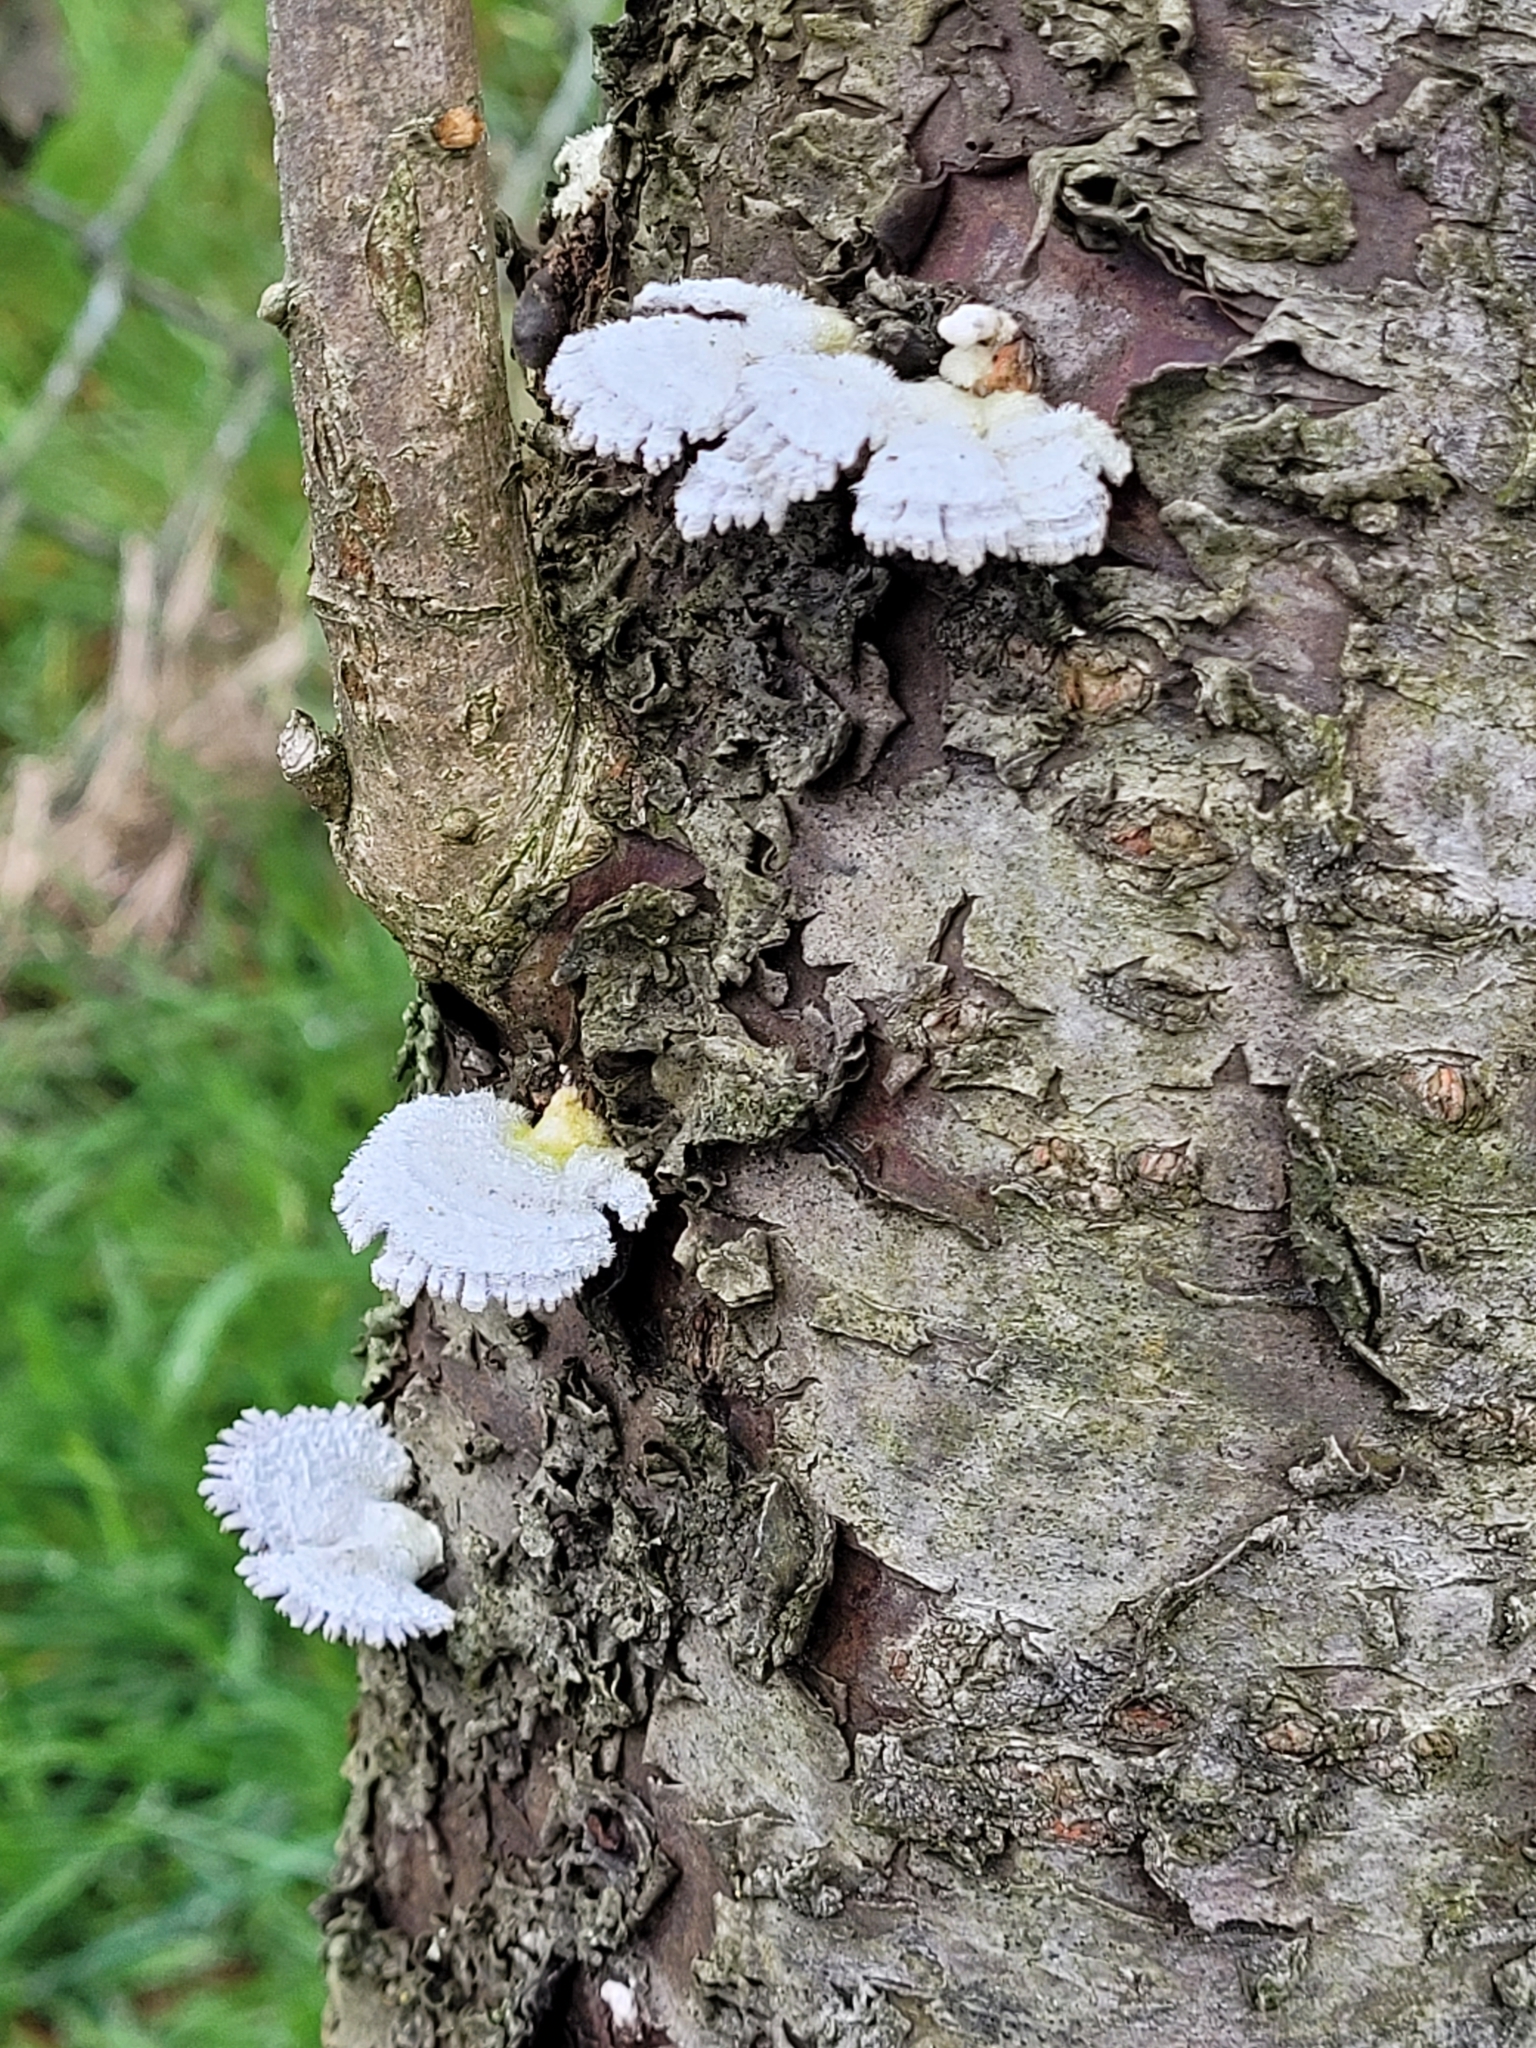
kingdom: Fungi
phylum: Basidiomycota
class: Agaricomycetes
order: Agaricales
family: Schizophyllaceae
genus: Schizophyllum
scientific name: Schizophyllum commune
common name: Common porecrust
